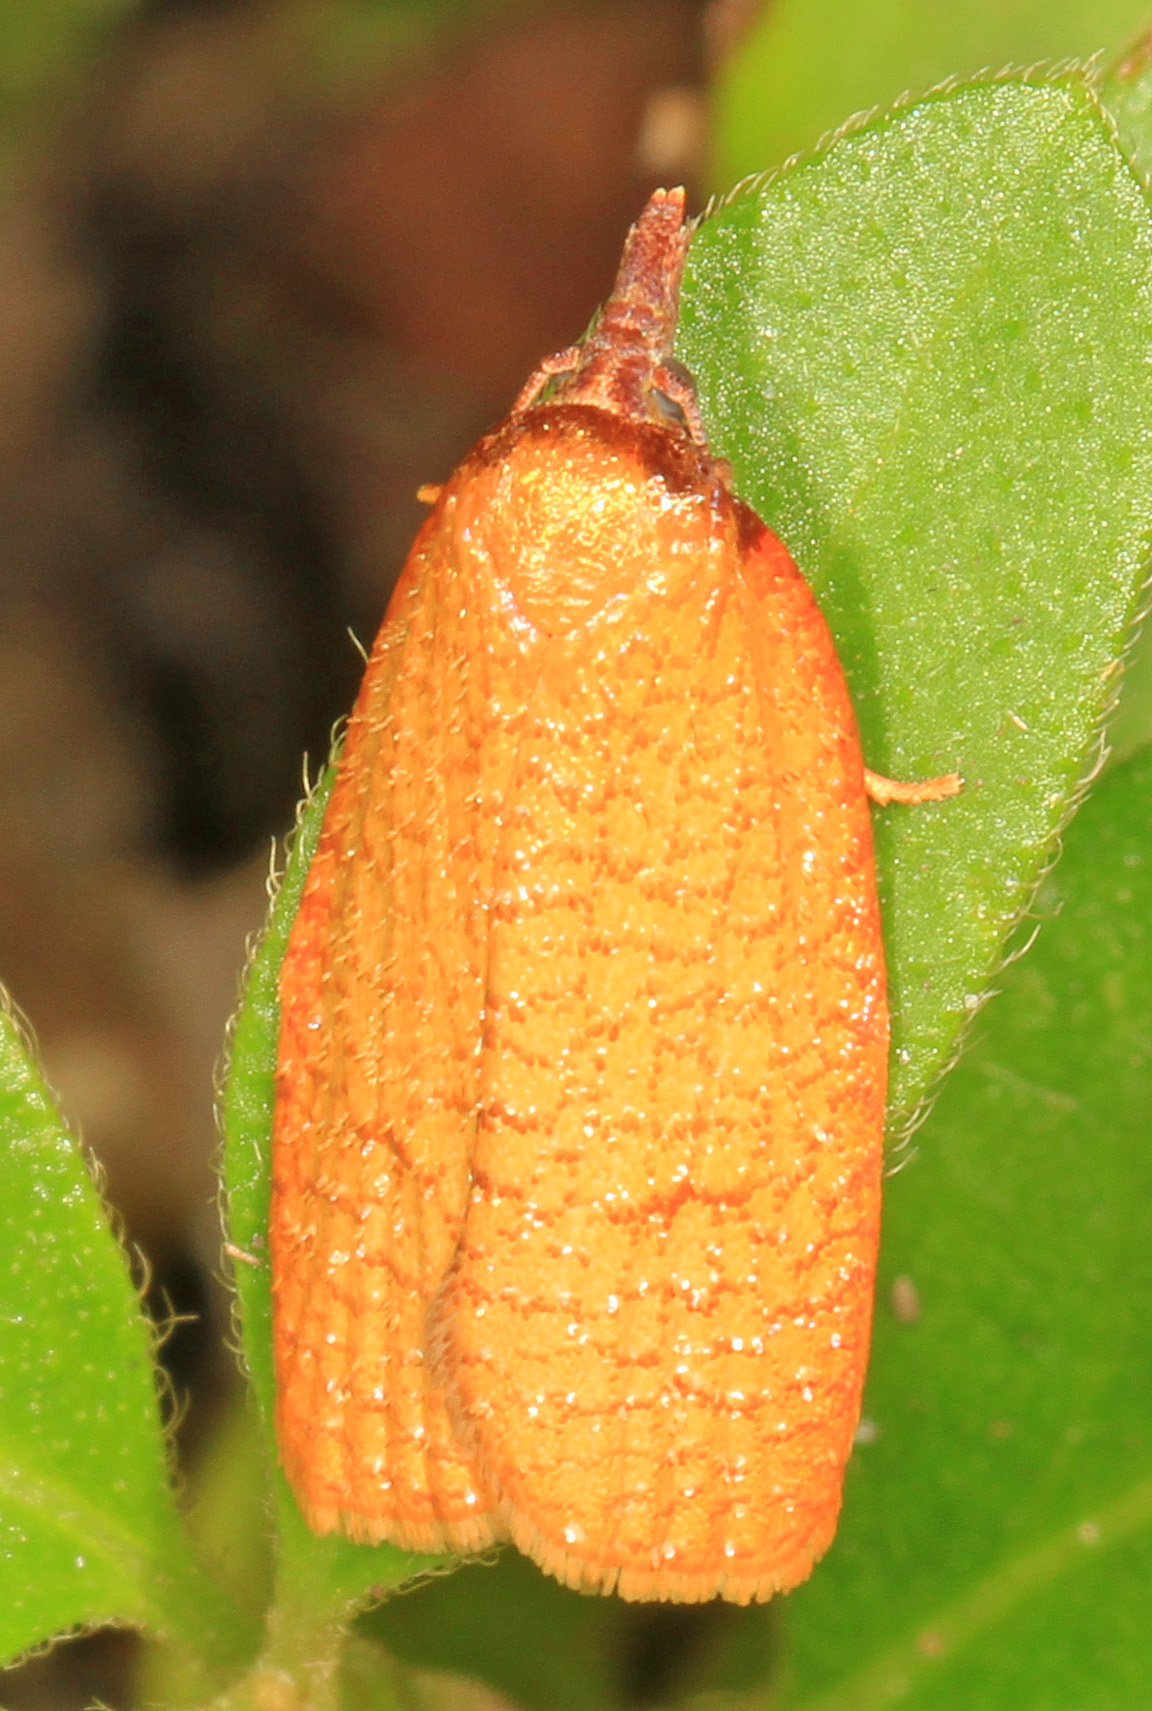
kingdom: Animalia
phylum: Arthropoda
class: Insecta
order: Lepidoptera
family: Tortricidae
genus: Sparganothis
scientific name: Sparganothis distincta
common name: Distinct sparganothis moth
